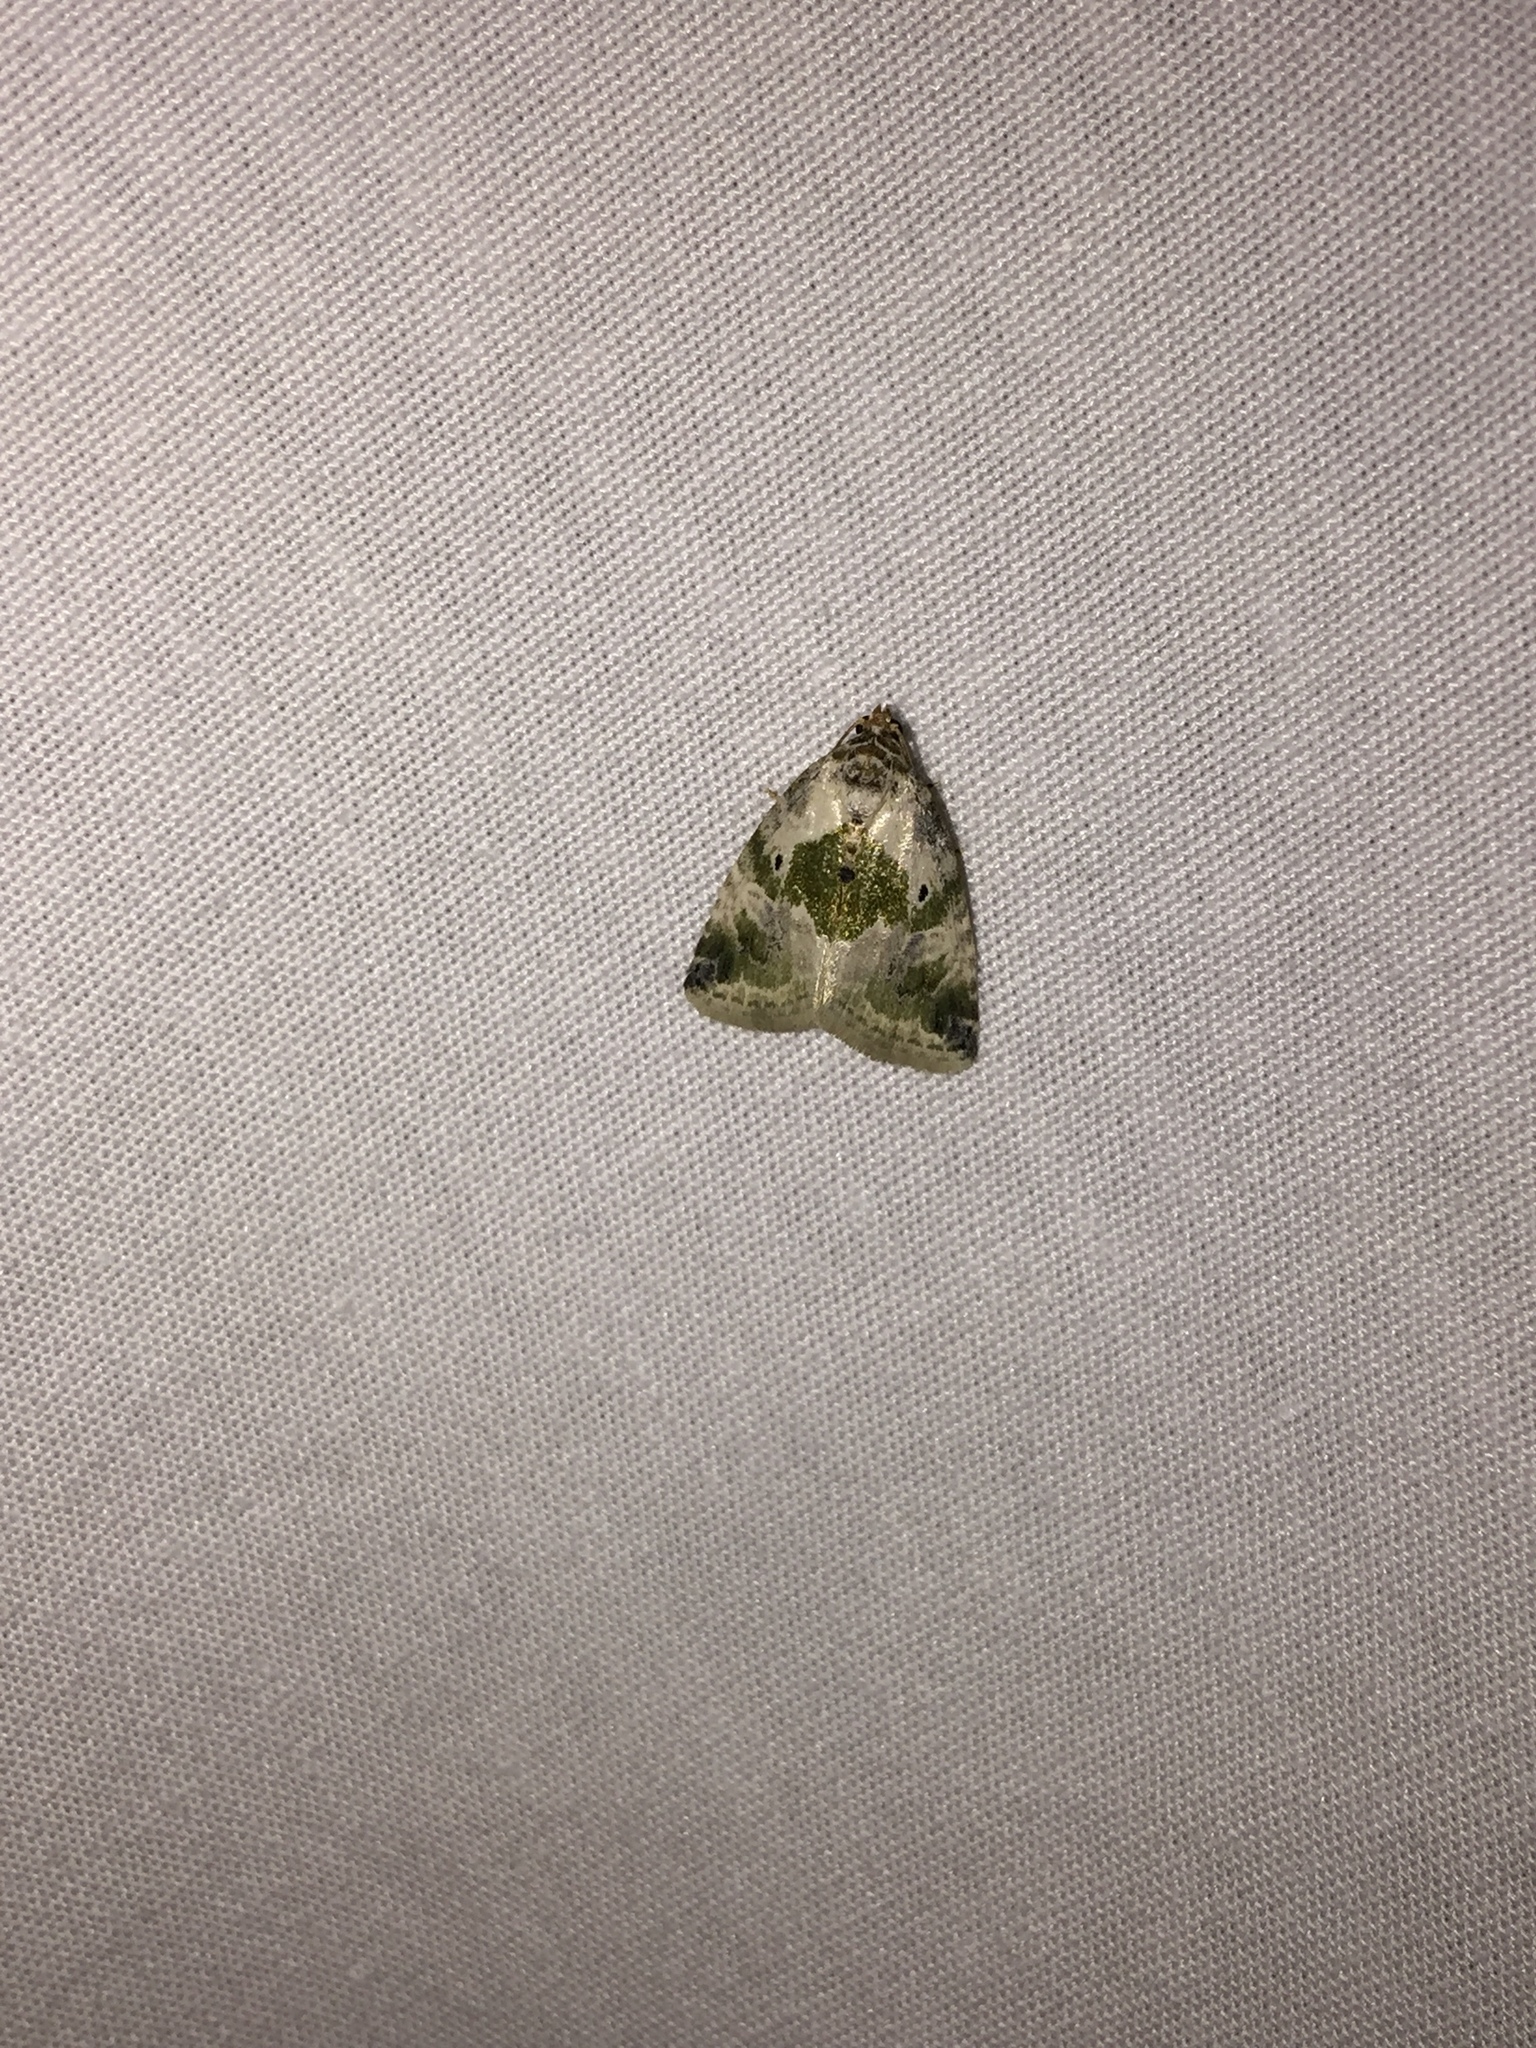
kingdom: Animalia
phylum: Arthropoda
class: Insecta
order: Lepidoptera
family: Noctuidae
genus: Maliattha
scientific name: Maliattha synochitis
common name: Black-dotted glyph
